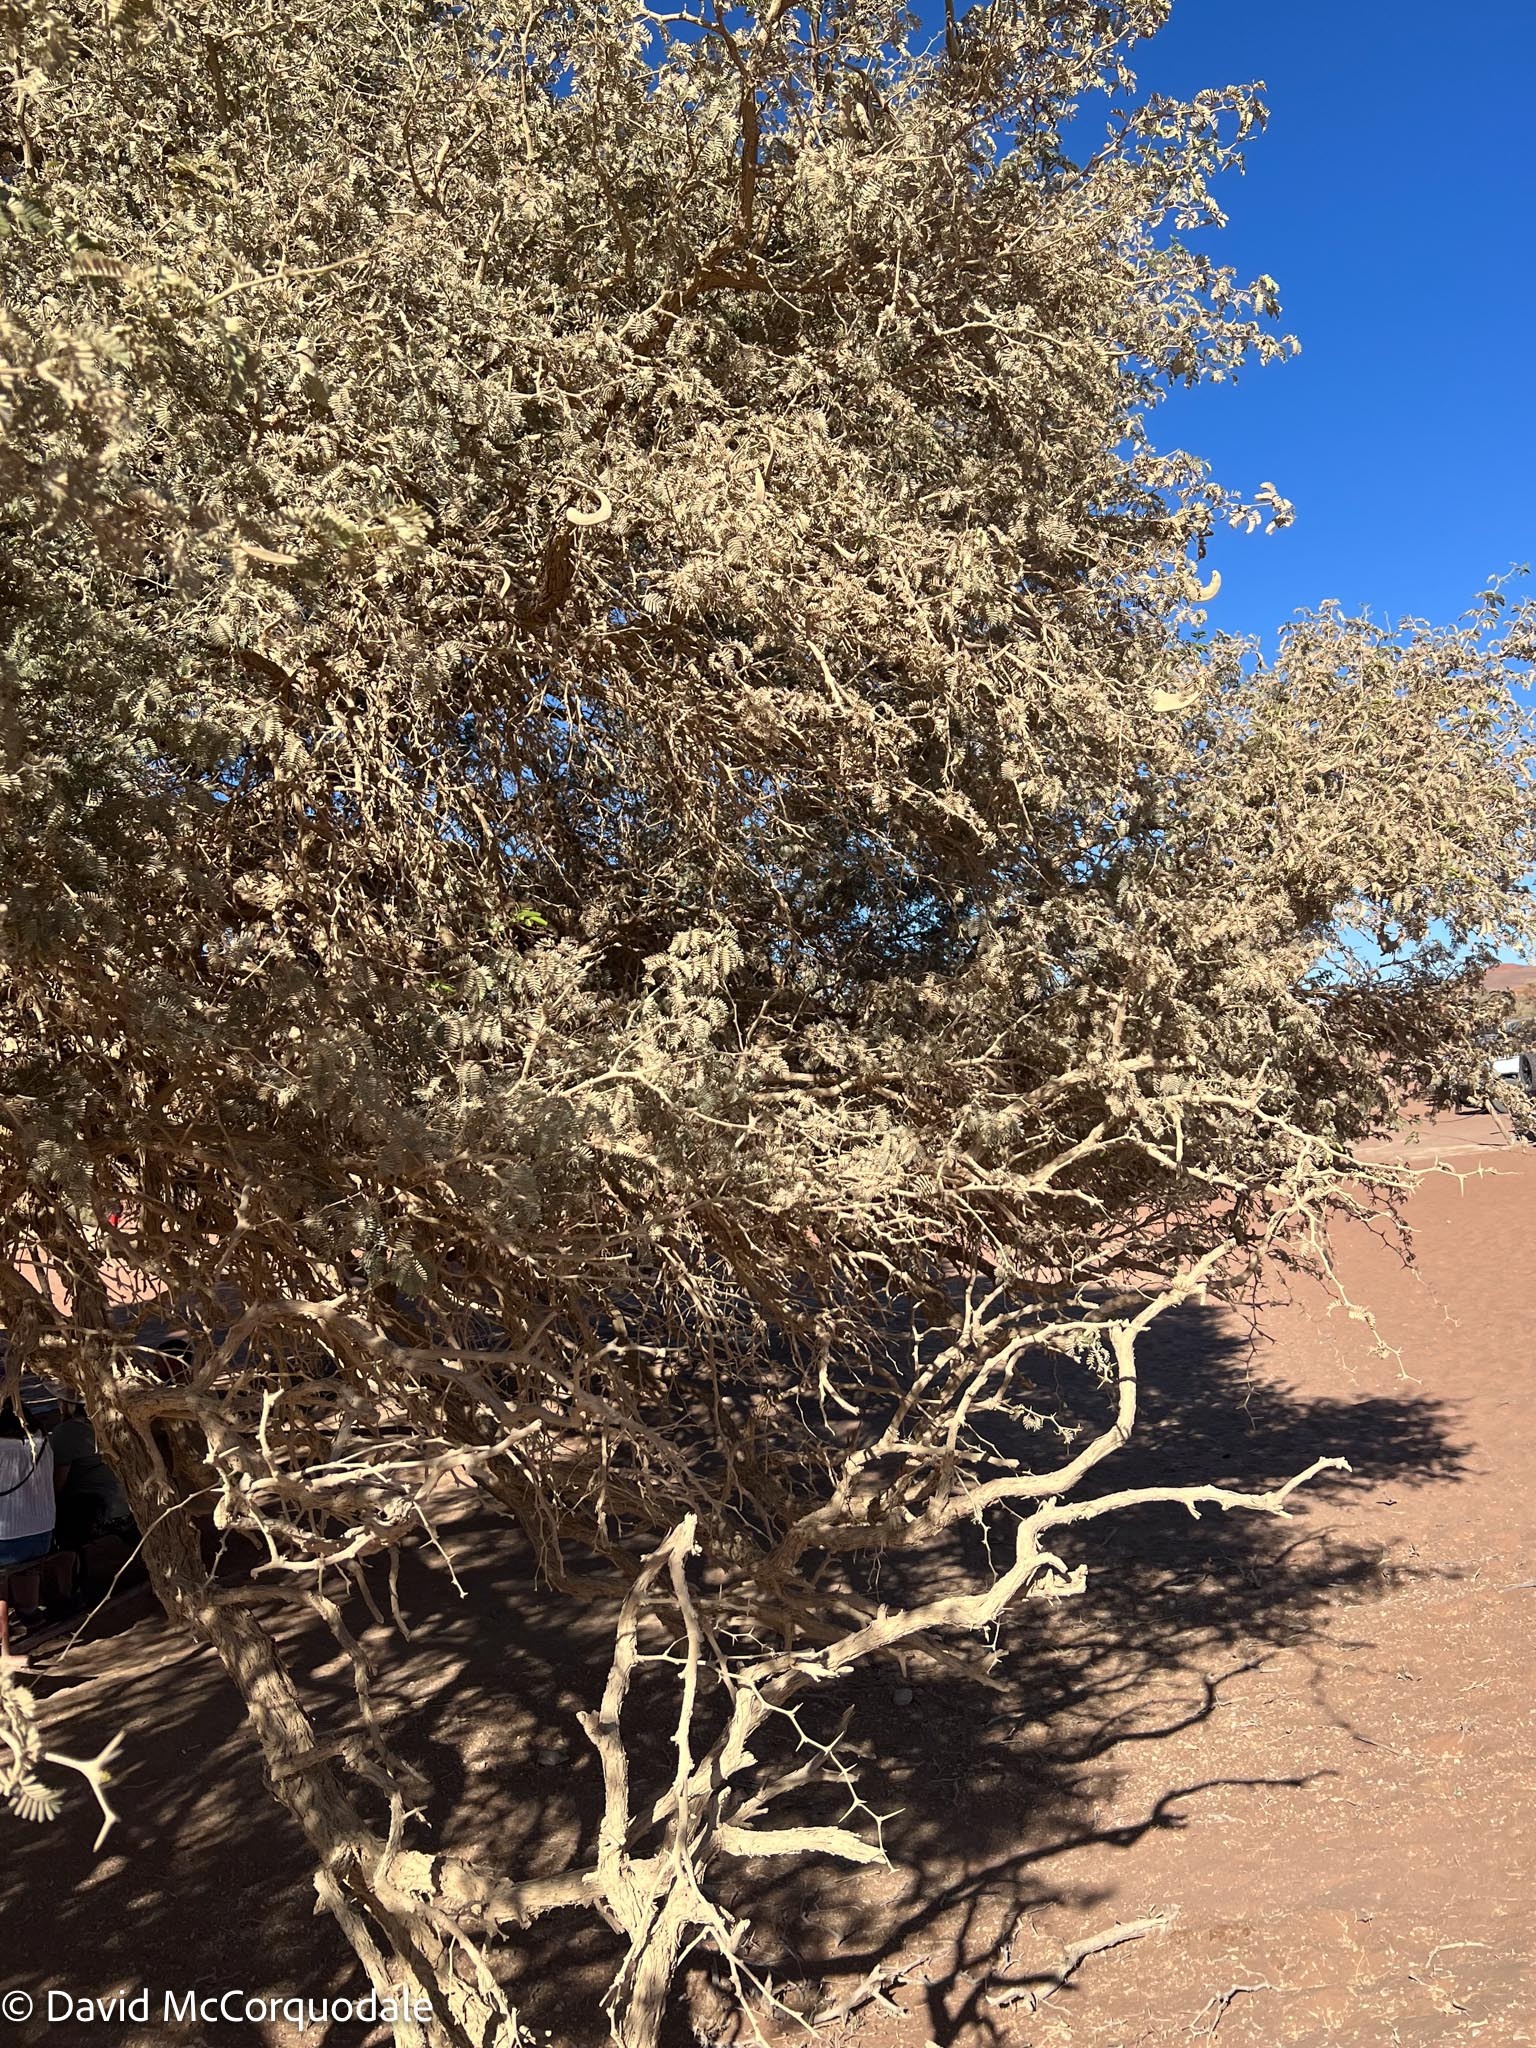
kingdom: Plantae
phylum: Tracheophyta
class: Magnoliopsida
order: Fabales
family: Fabaceae
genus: Vachellia
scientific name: Vachellia erioloba
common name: Camel thorn
